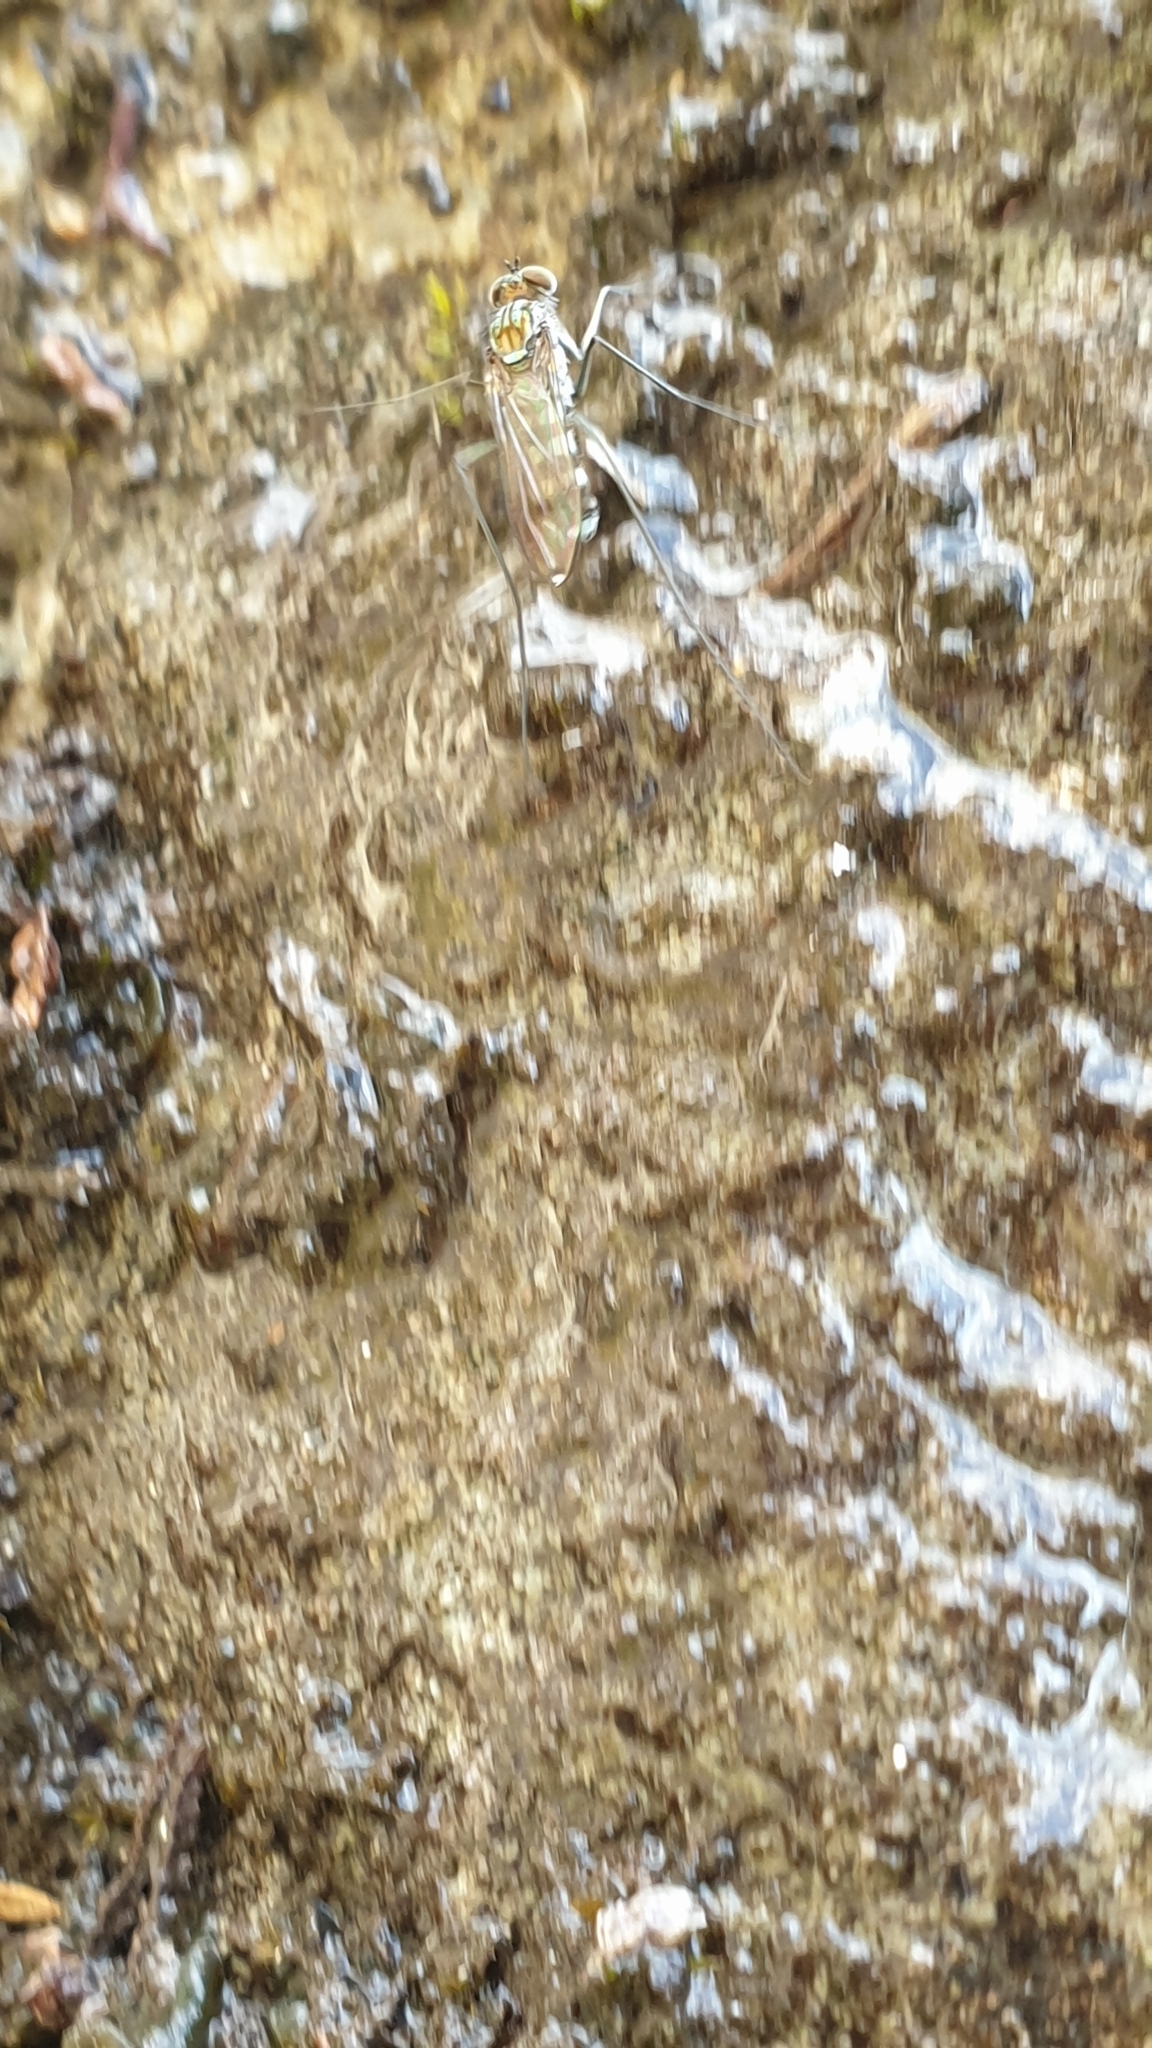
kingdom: Animalia
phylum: Arthropoda
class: Insecta
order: Diptera
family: Dolichopodidae
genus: Liancalus
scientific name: Liancalus virens
